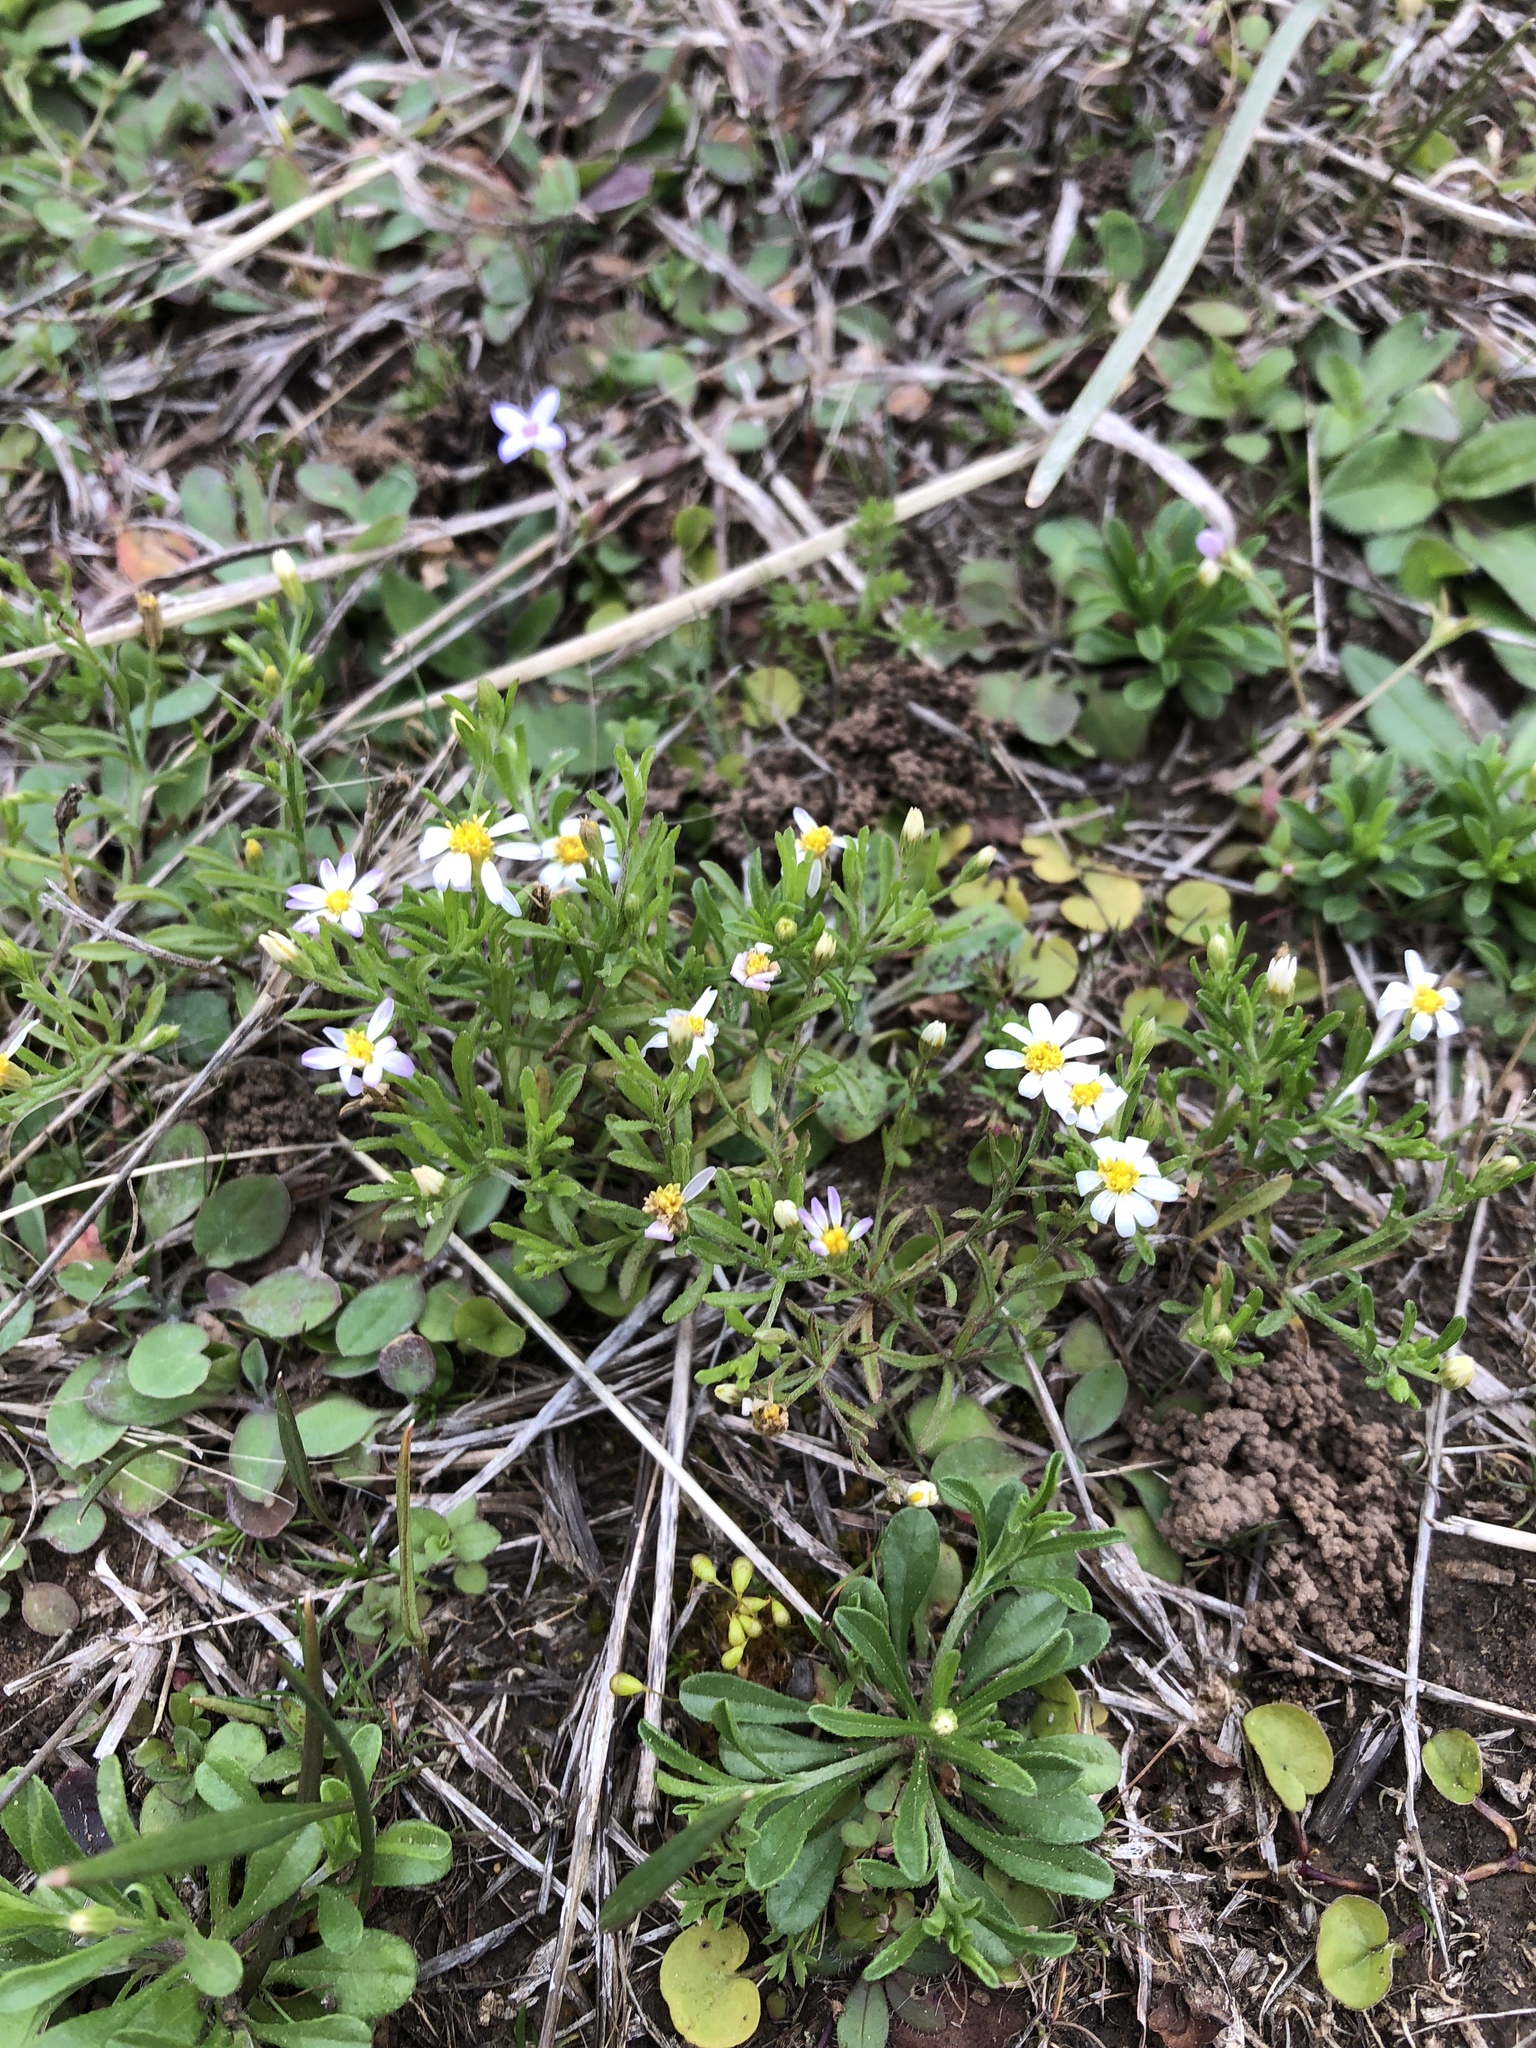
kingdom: Plantae
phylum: Tracheophyta
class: Magnoliopsida
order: Asterales
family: Asteraceae
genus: Chaetopappa
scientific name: Chaetopappa asteroides
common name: Tiny lazy daisy
